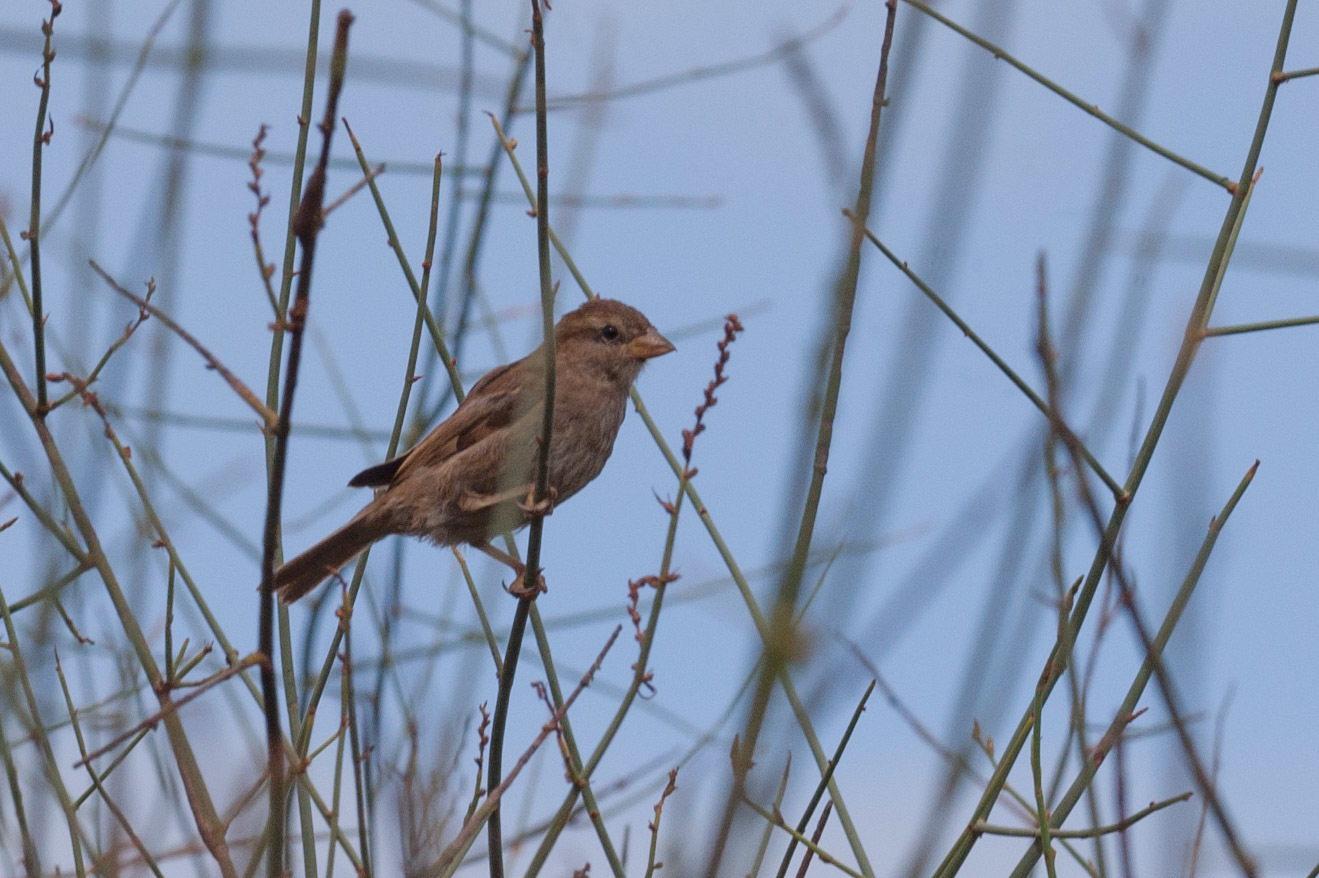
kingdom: Animalia
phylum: Chordata
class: Aves
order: Passeriformes
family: Passeridae
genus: Passer
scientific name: Passer domesticus
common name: House sparrow
